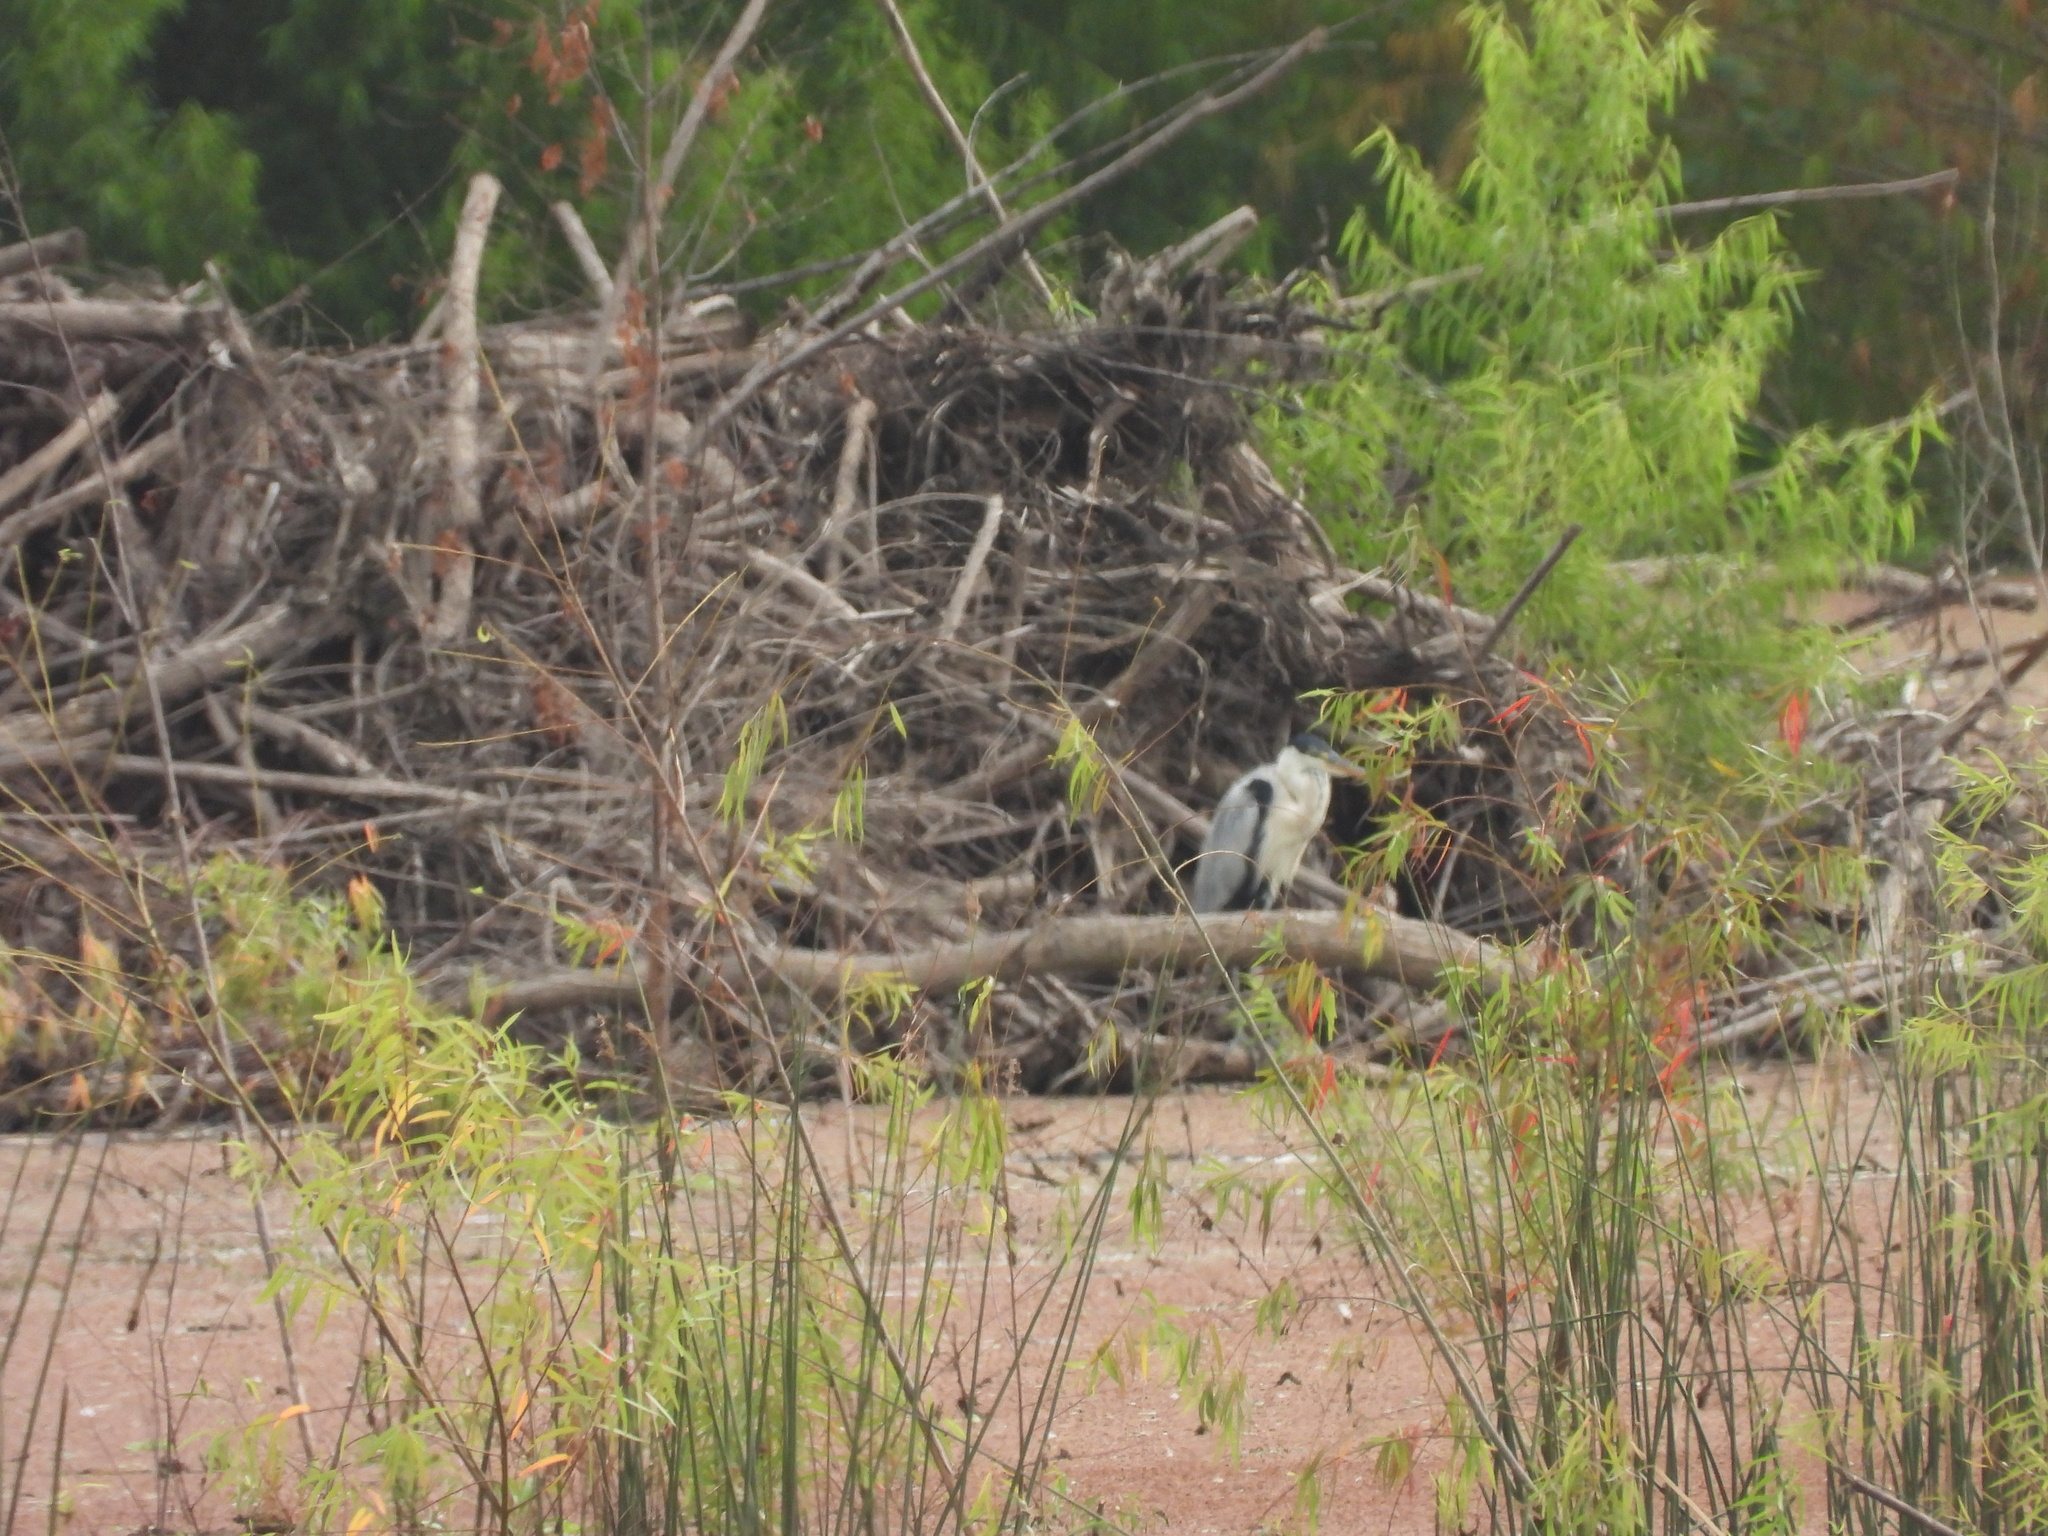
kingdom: Animalia
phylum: Chordata
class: Aves
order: Pelecaniformes
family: Ardeidae
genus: Ardea
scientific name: Ardea cocoi
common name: Cocoi heron
